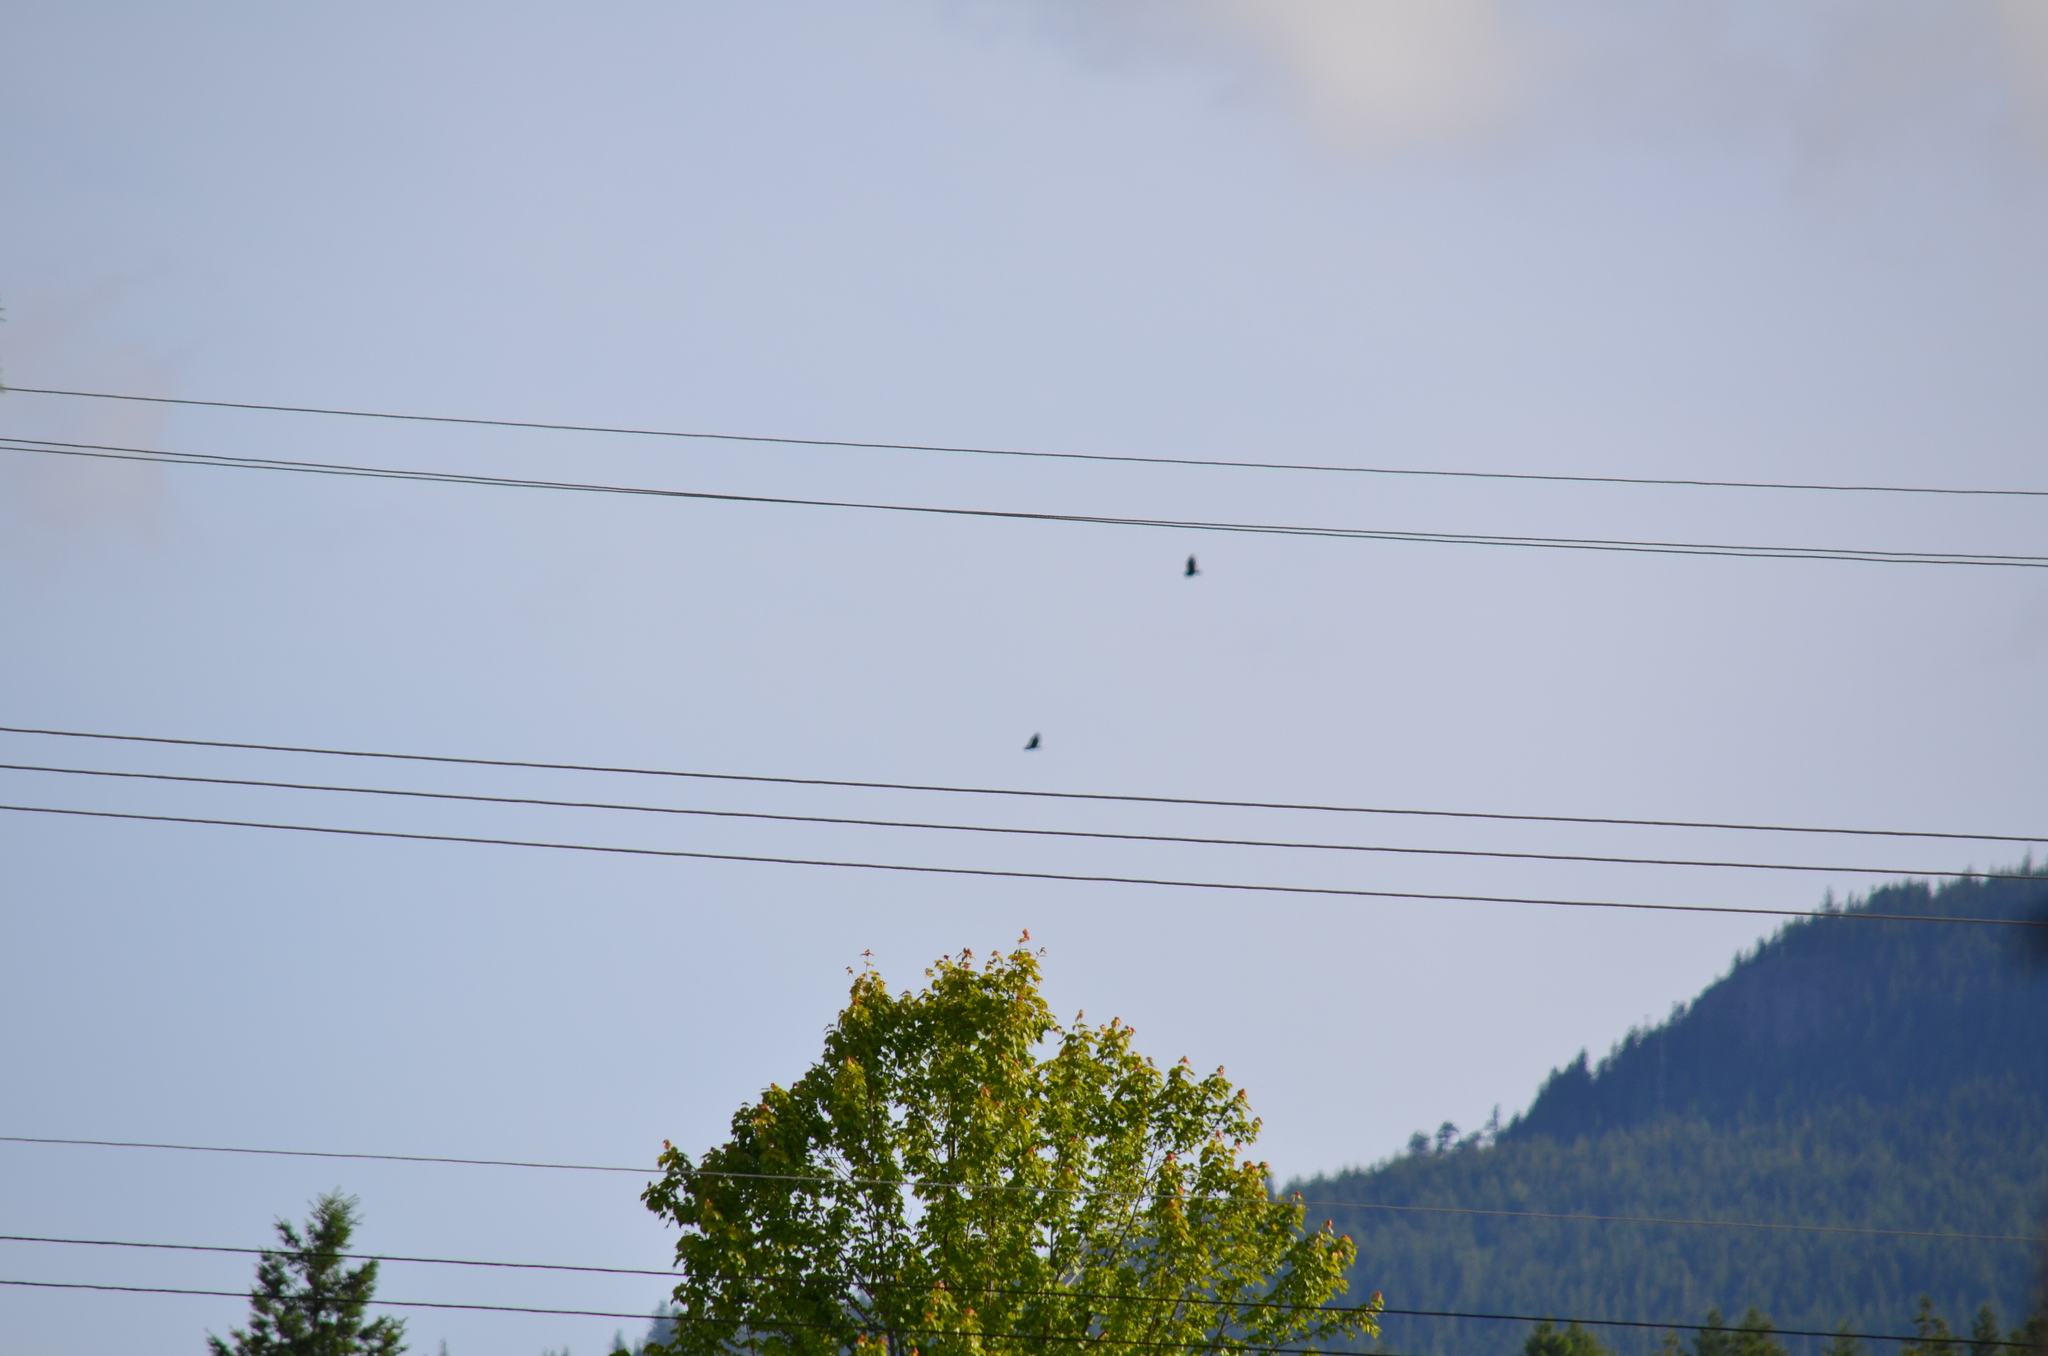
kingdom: Animalia
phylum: Chordata
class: Aves
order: Accipitriformes
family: Cathartidae
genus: Cathartes
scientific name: Cathartes aura
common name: Turkey vulture
